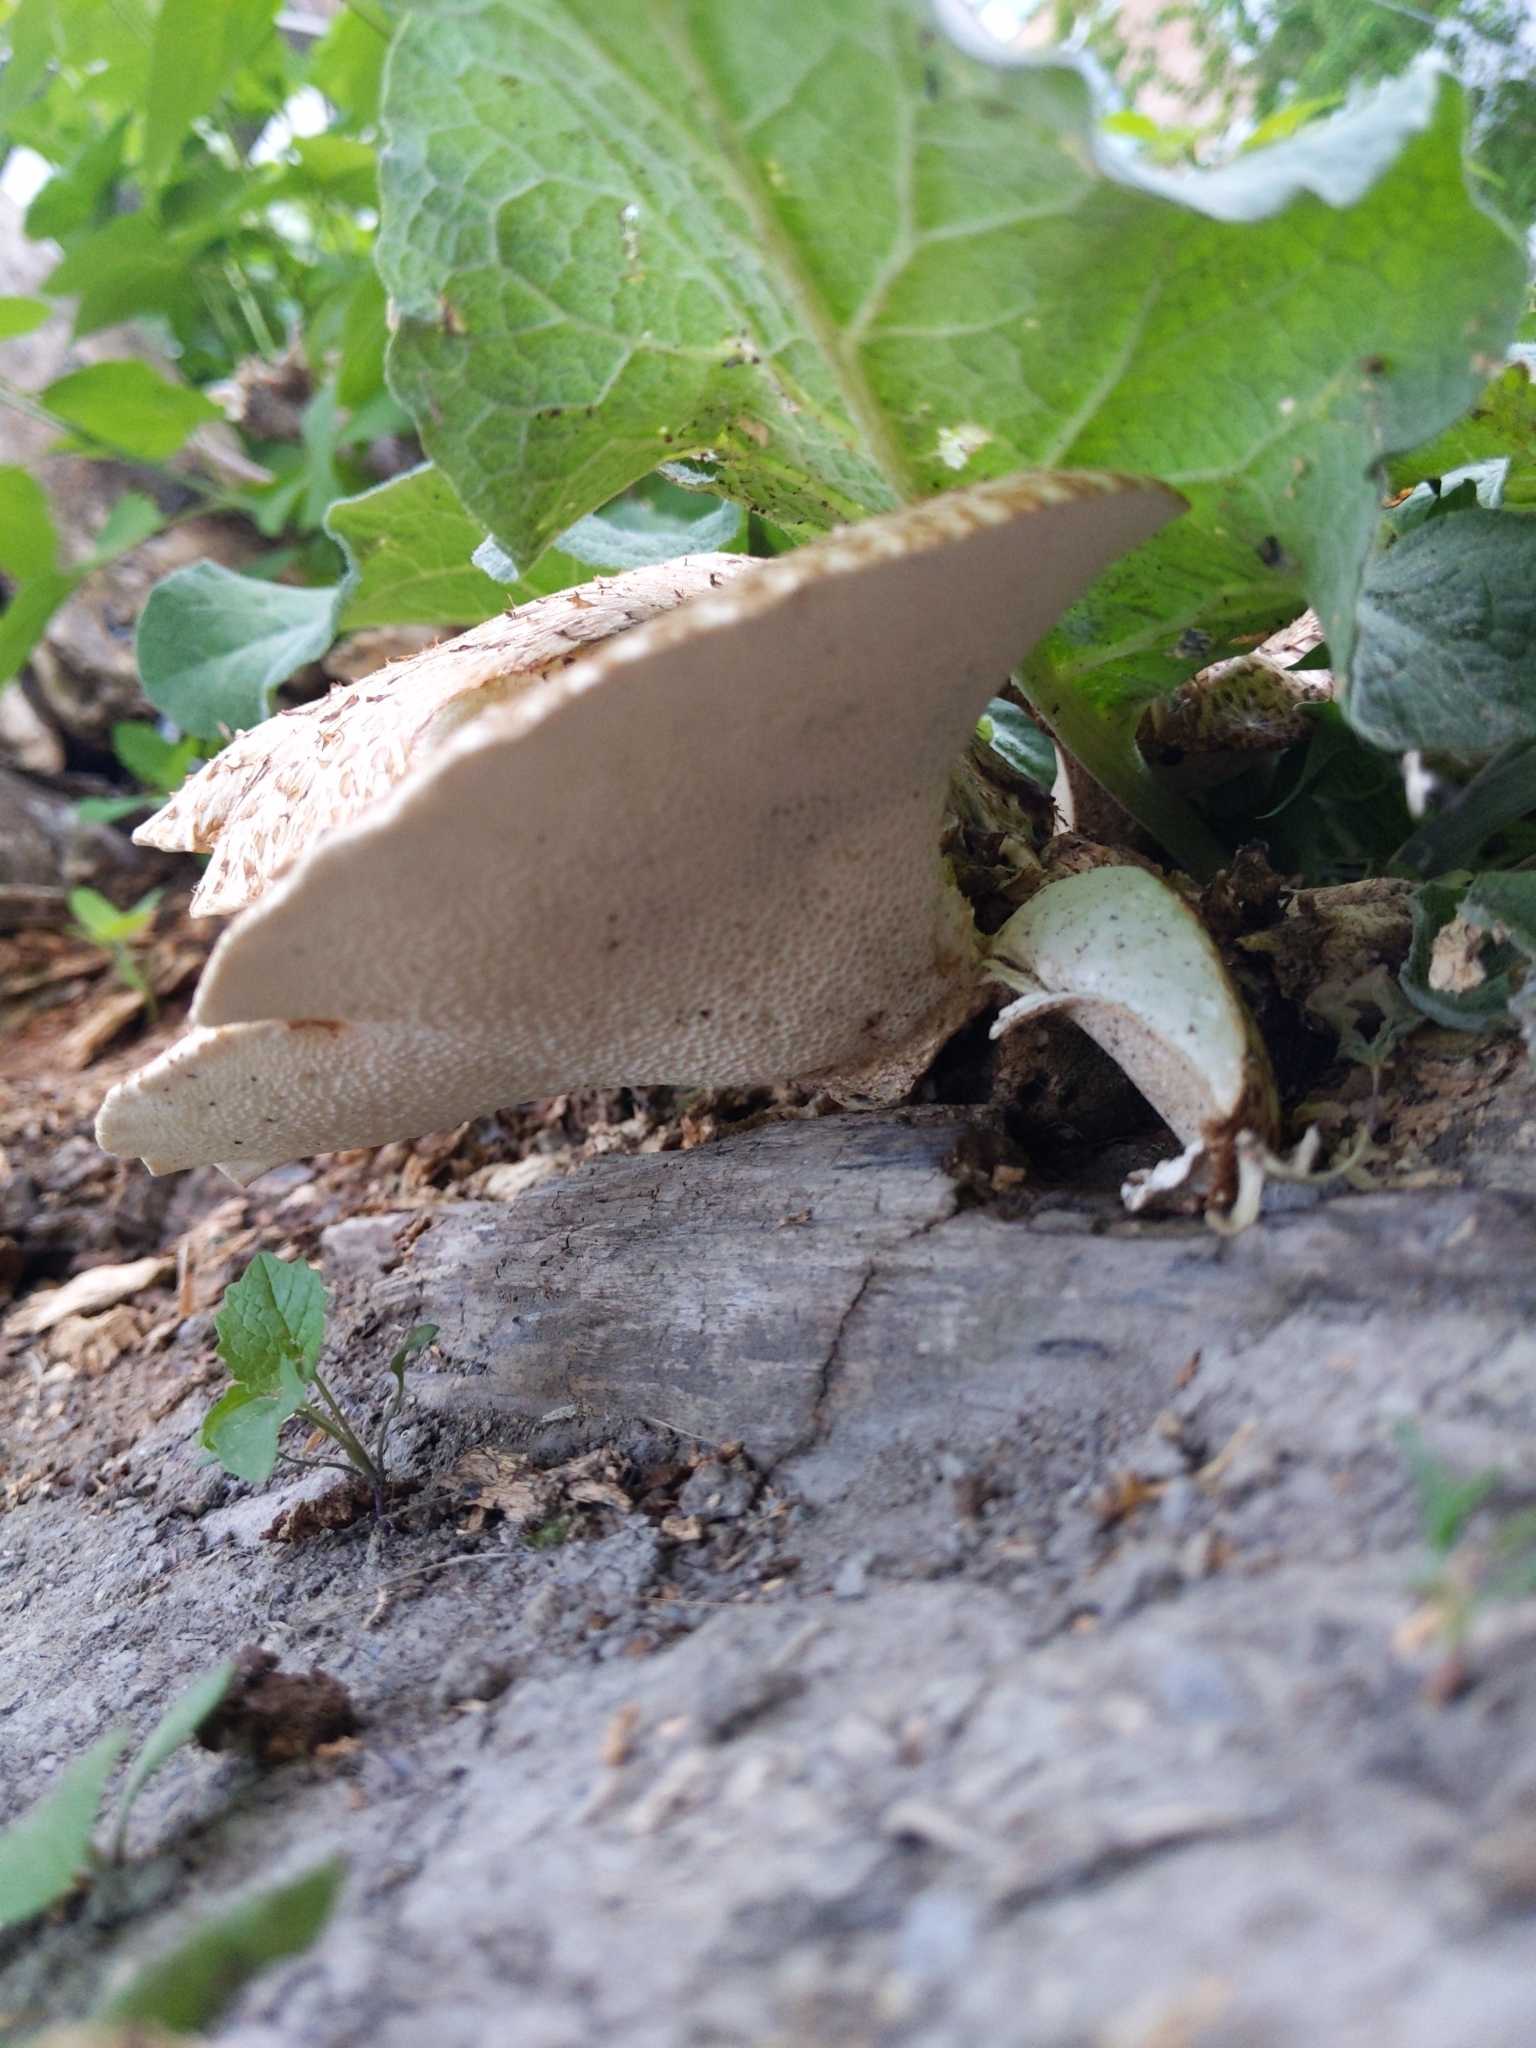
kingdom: Fungi
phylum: Basidiomycota
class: Agaricomycetes
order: Polyporales
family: Polyporaceae
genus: Cerioporus
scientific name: Cerioporus squamosus
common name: Dryad's saddle
